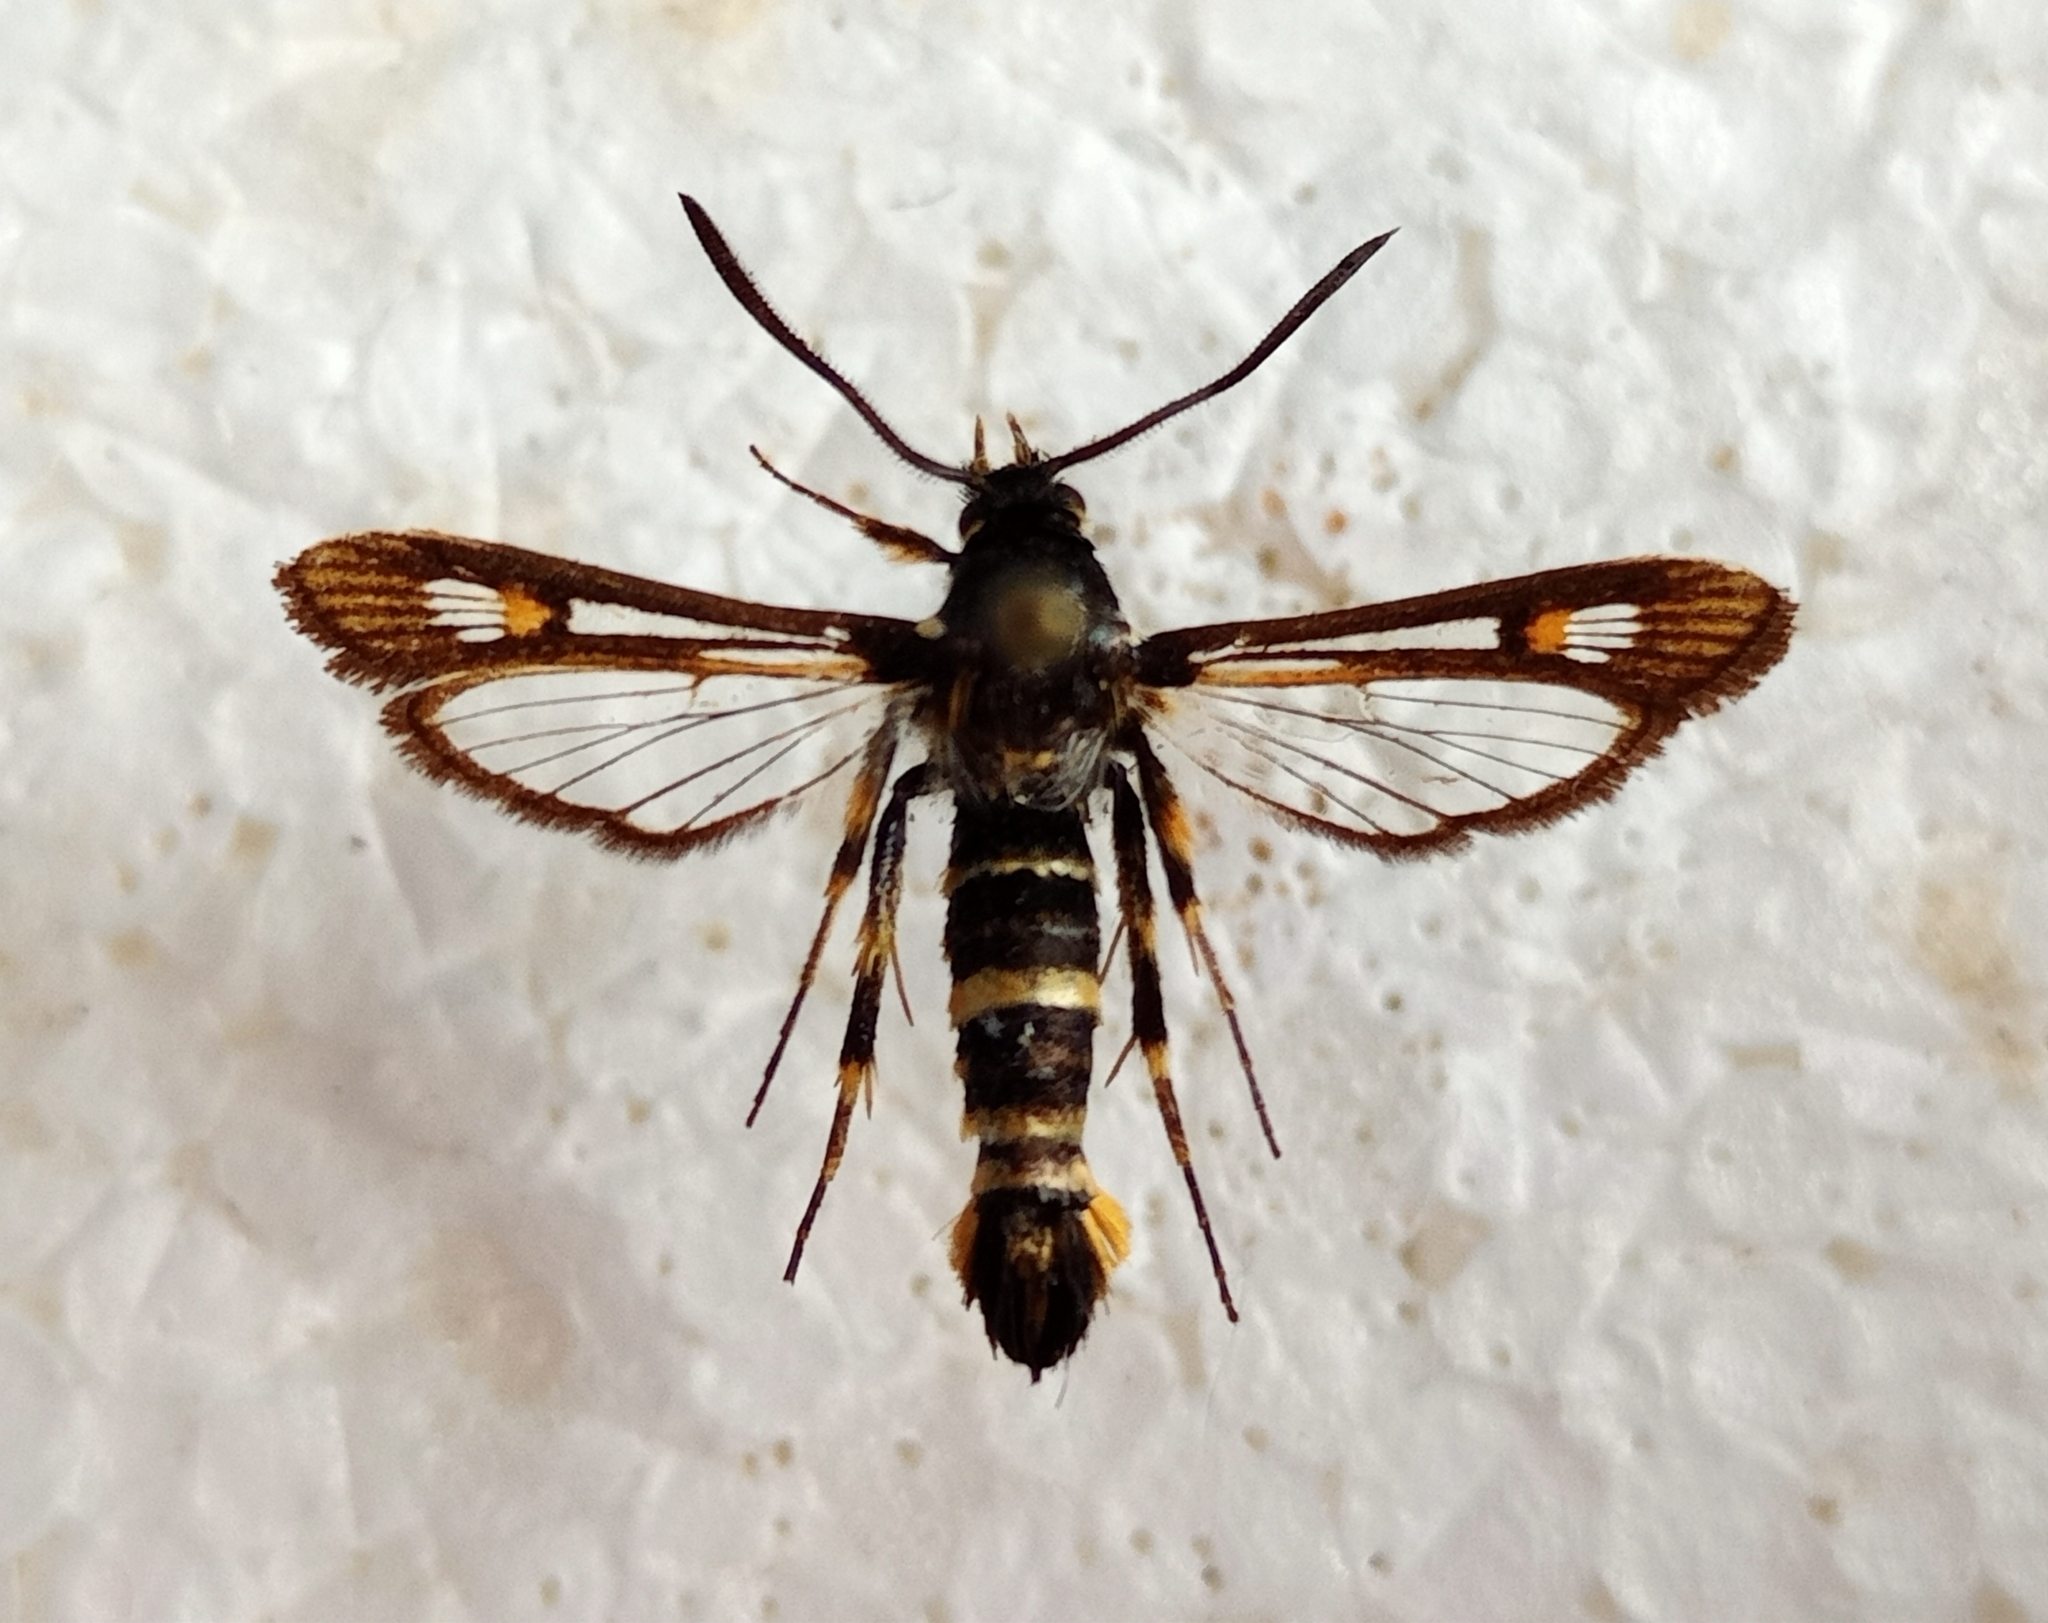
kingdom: Animalia
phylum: Arthropoda
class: Insecta
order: Lepidoptera
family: Sesiidae
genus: Bembecia
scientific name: Bembecia uroceriformis
